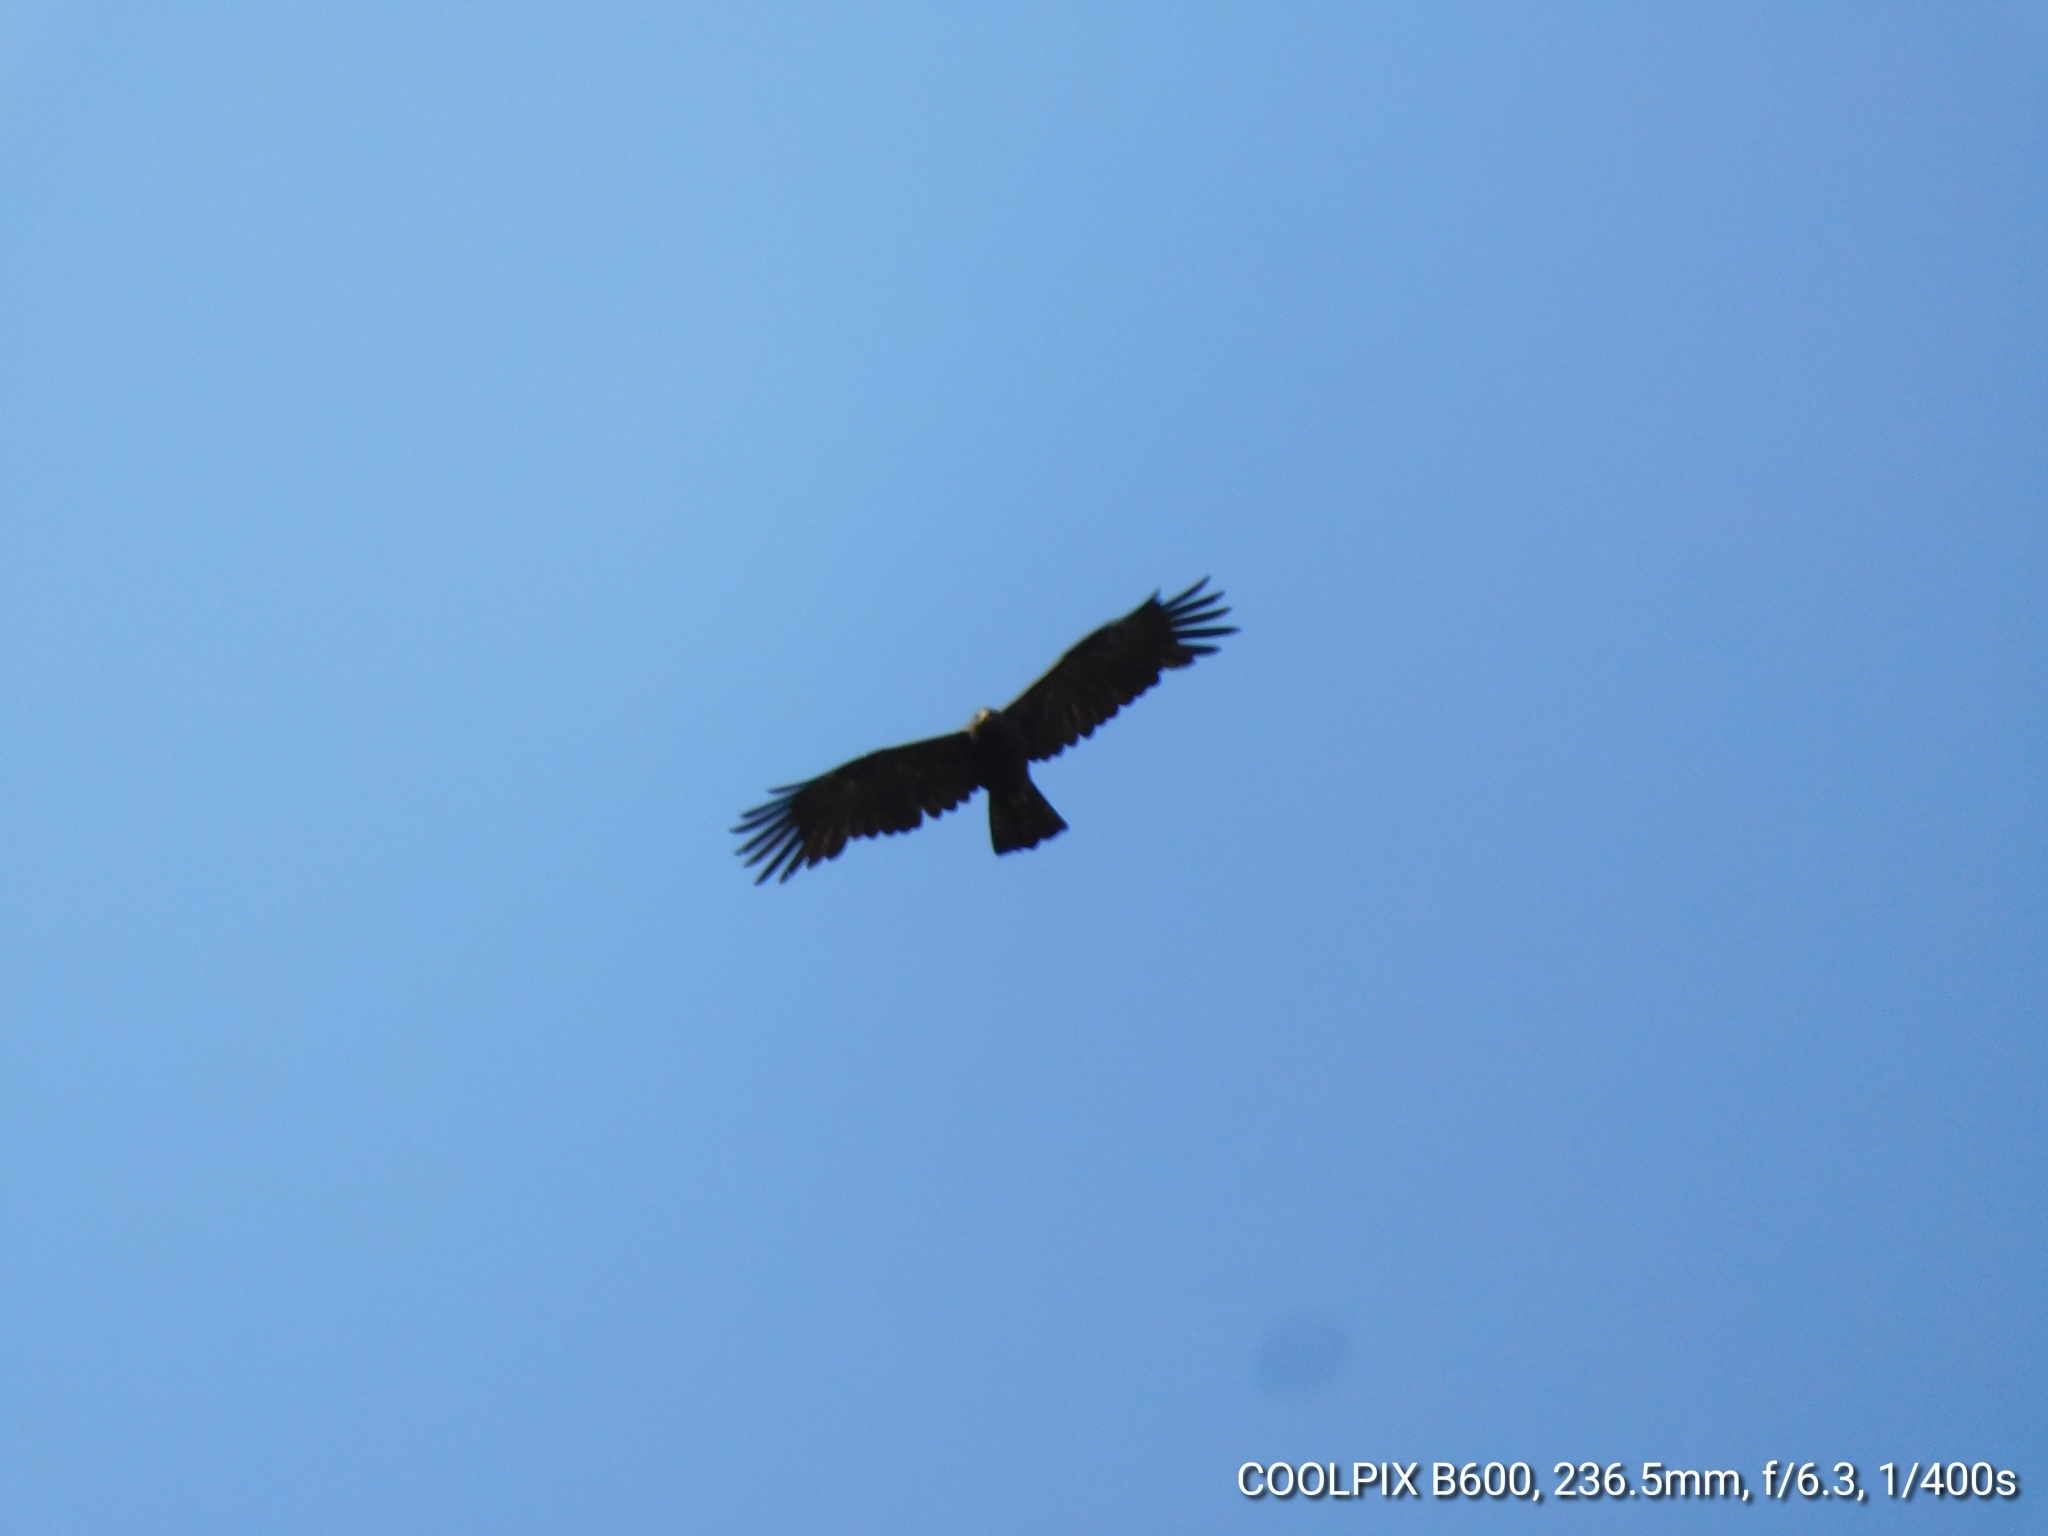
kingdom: Animalia
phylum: Chordata
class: Aves
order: Accipitriformes
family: Accipitridae
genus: Ictinaetus
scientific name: Ictinaetus malayensis
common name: Black eagle
